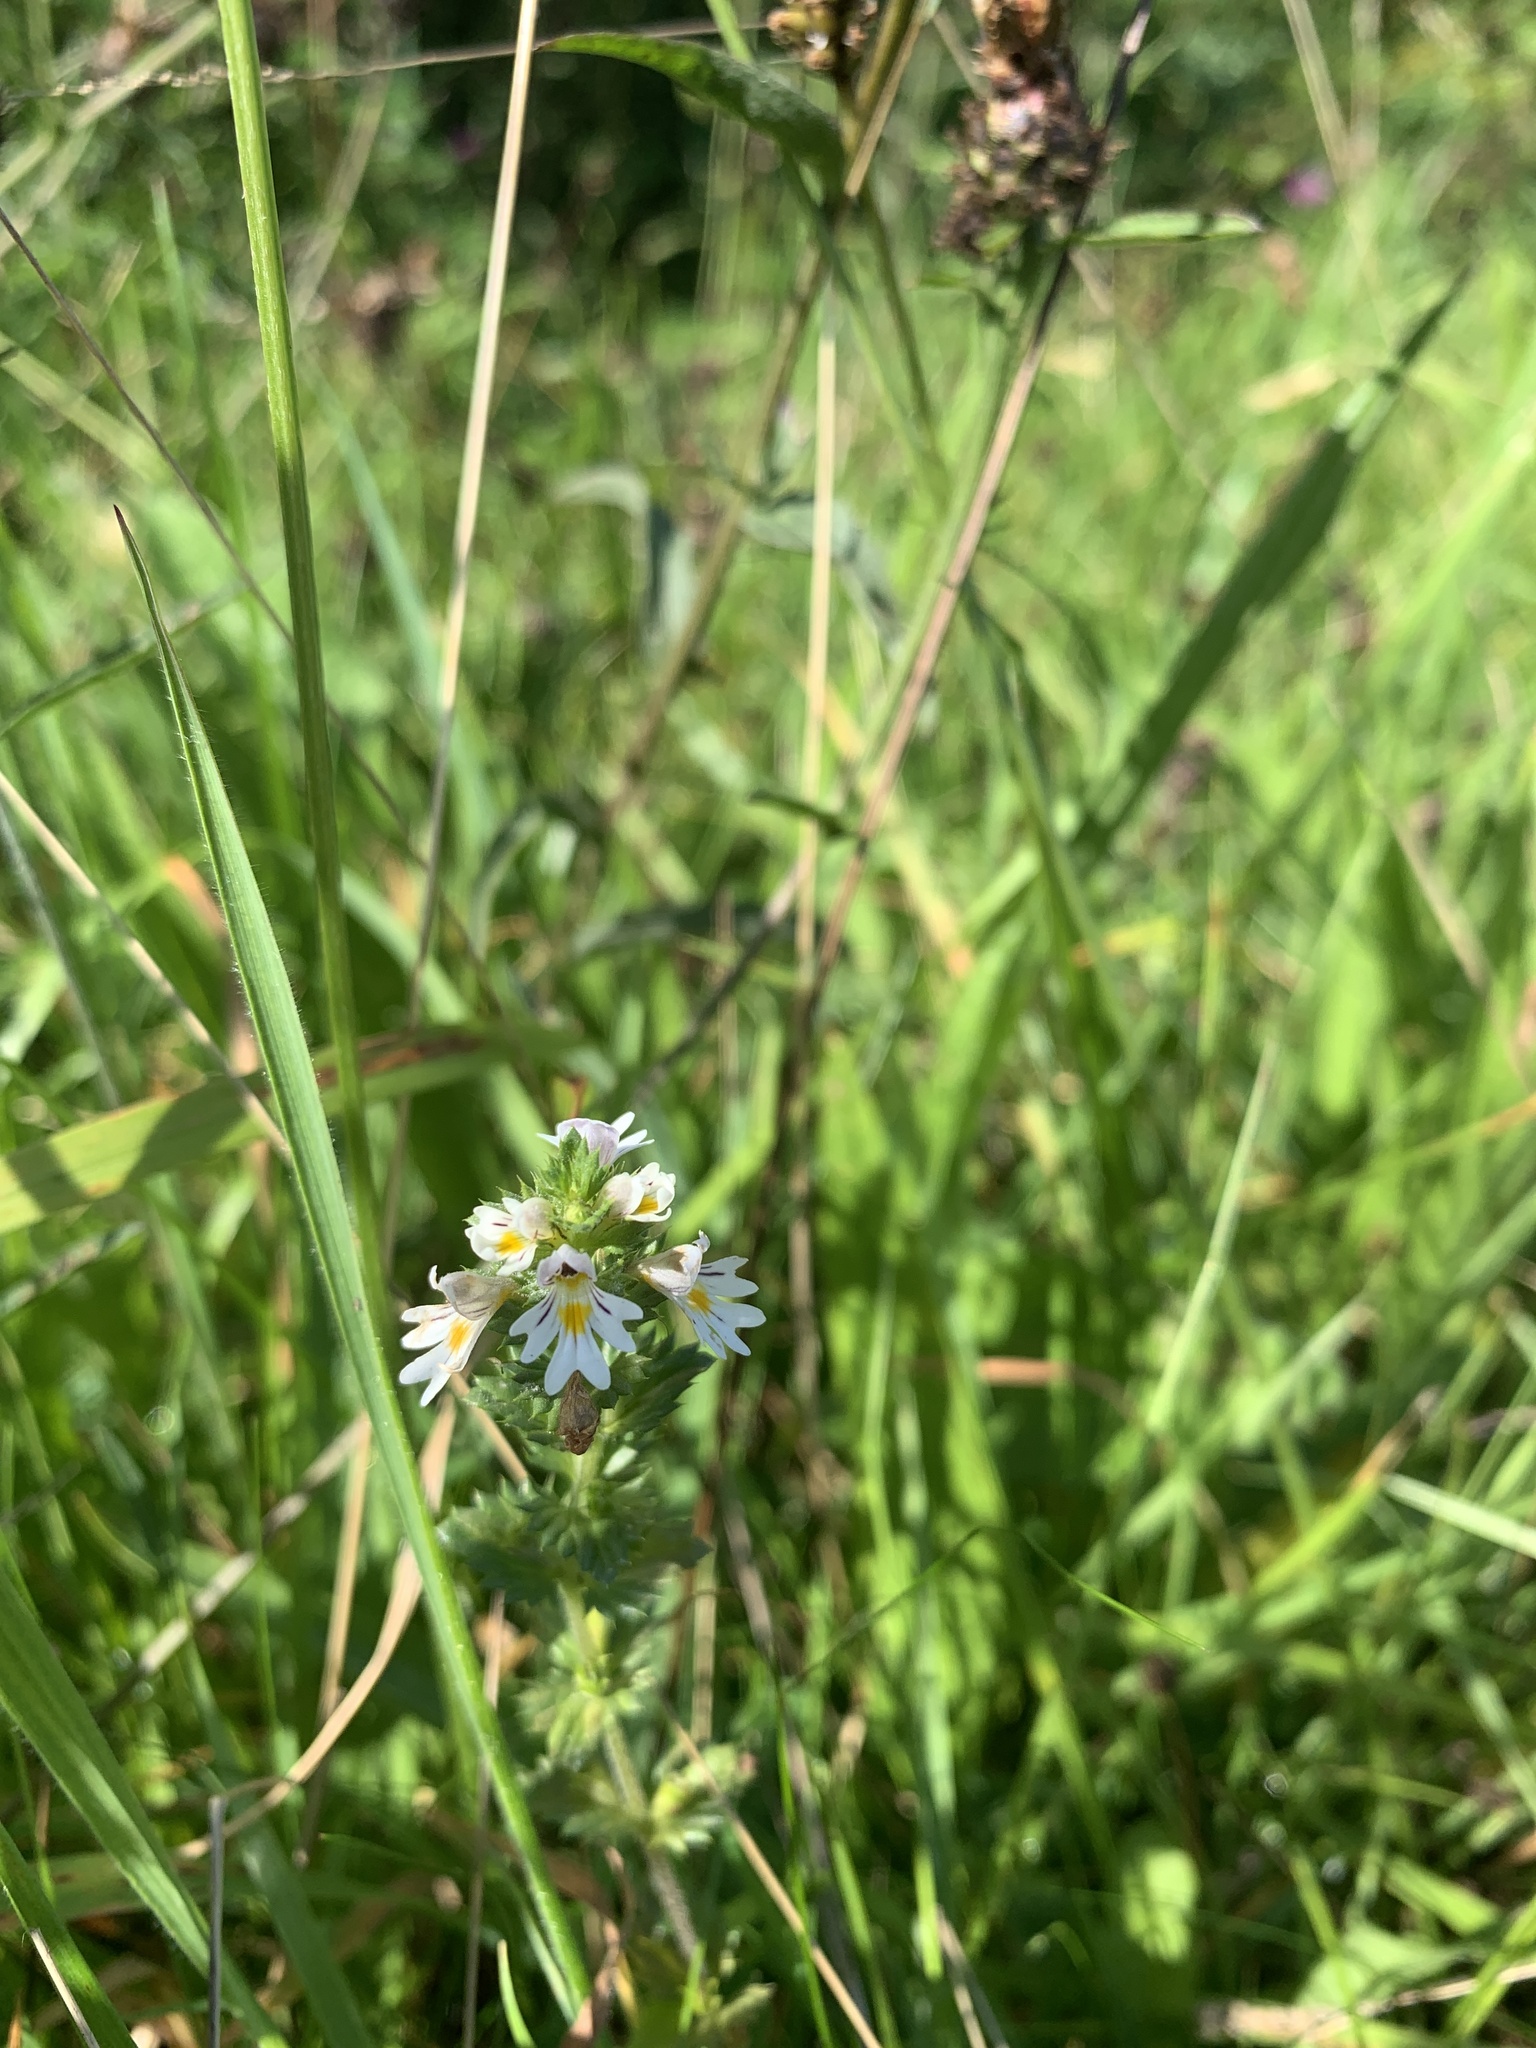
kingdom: Plantae
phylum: Tracheophyta
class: Magnoliopsida
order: Lamiales
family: Orobanchaceae
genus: Euphrasia
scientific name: Euphrasia nemorosa
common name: Common eyebright
